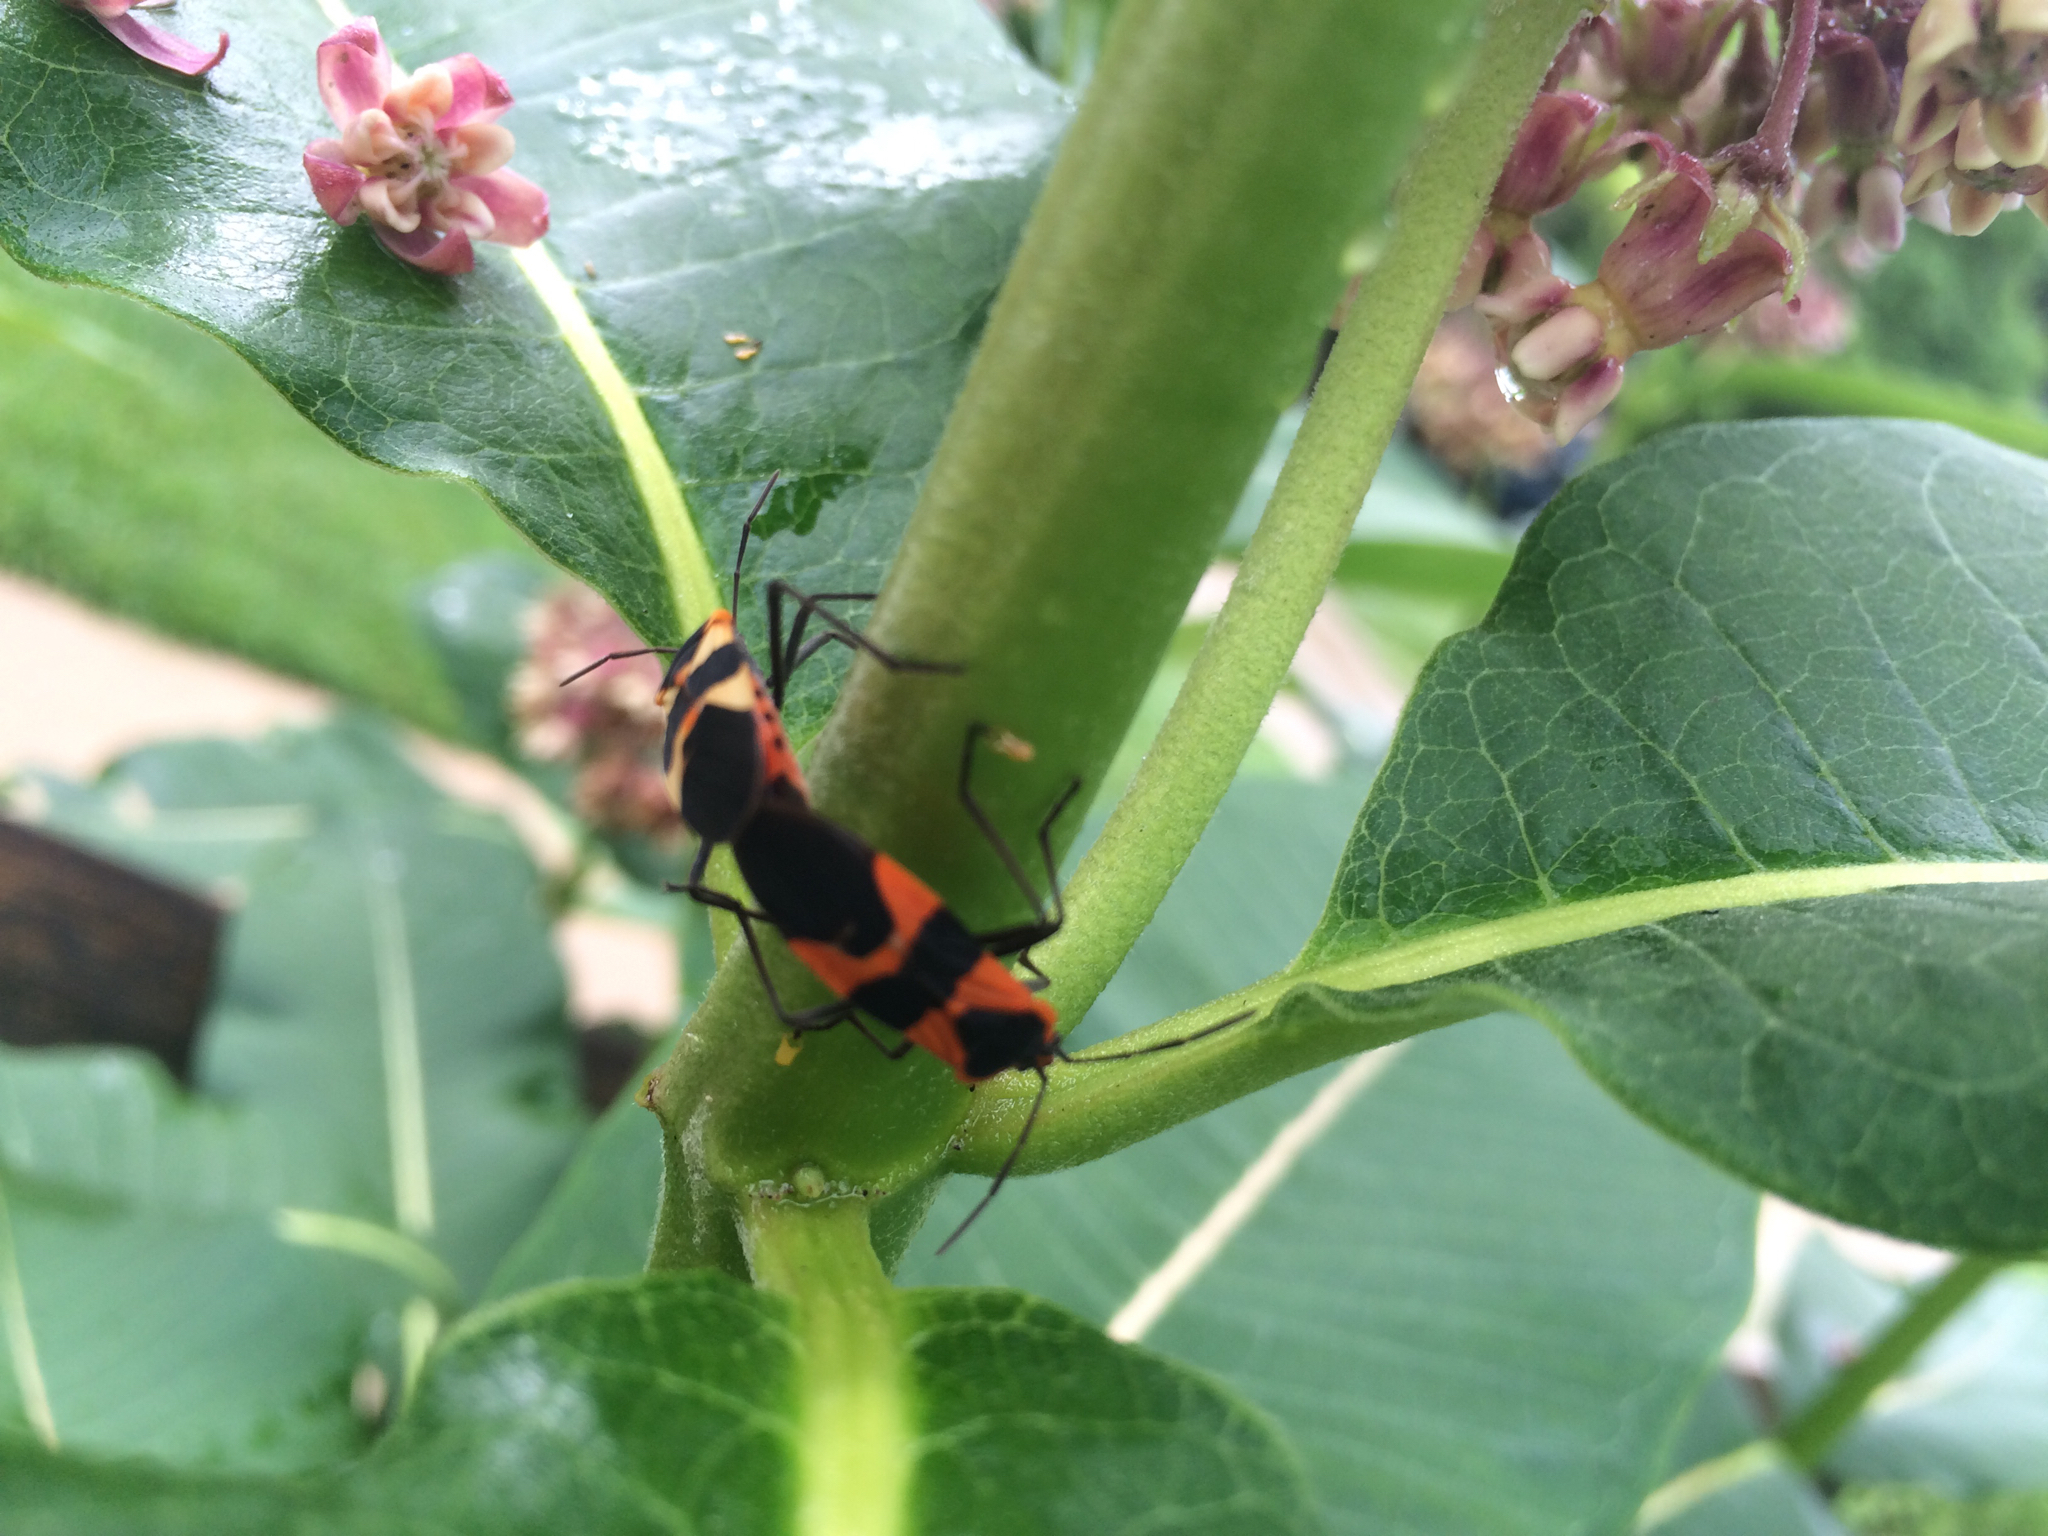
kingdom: Animalia
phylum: Arthropoda
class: Insecta
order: Hemiptera
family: Lygaeidae
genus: Oncopeltus
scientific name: Oncopeltus fasciatus
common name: Large milkweed bug
